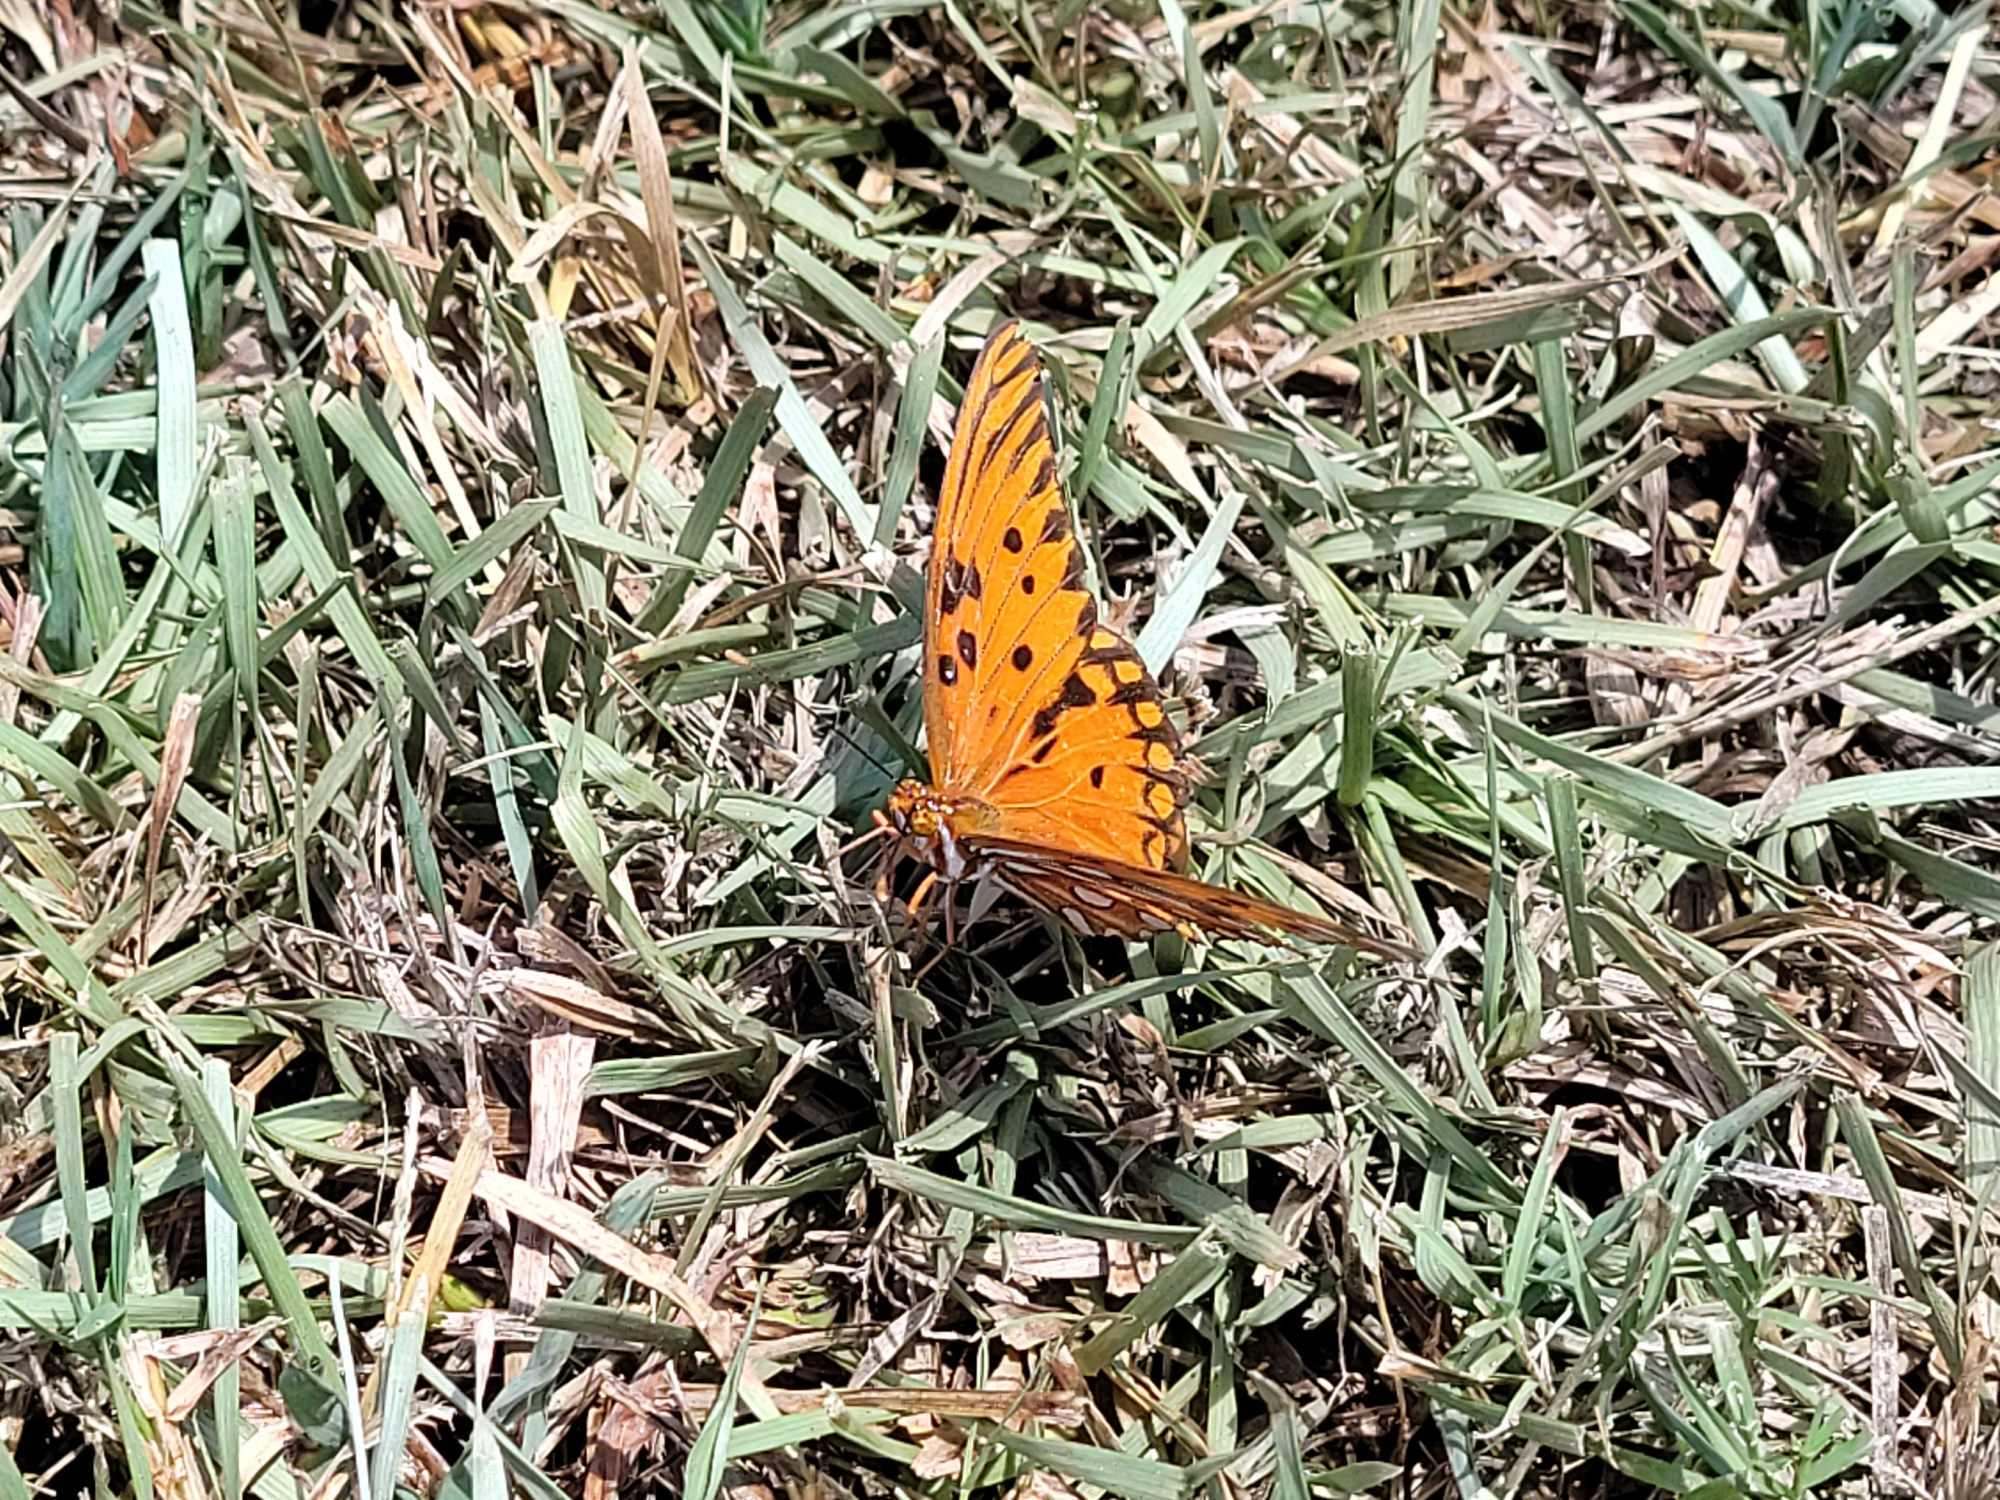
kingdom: Animalia
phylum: Arthropoda
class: Insecta
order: Lepidoptera
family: Nymphalidae
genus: Dione
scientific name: Dione vanillae
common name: Gulf fritillary
